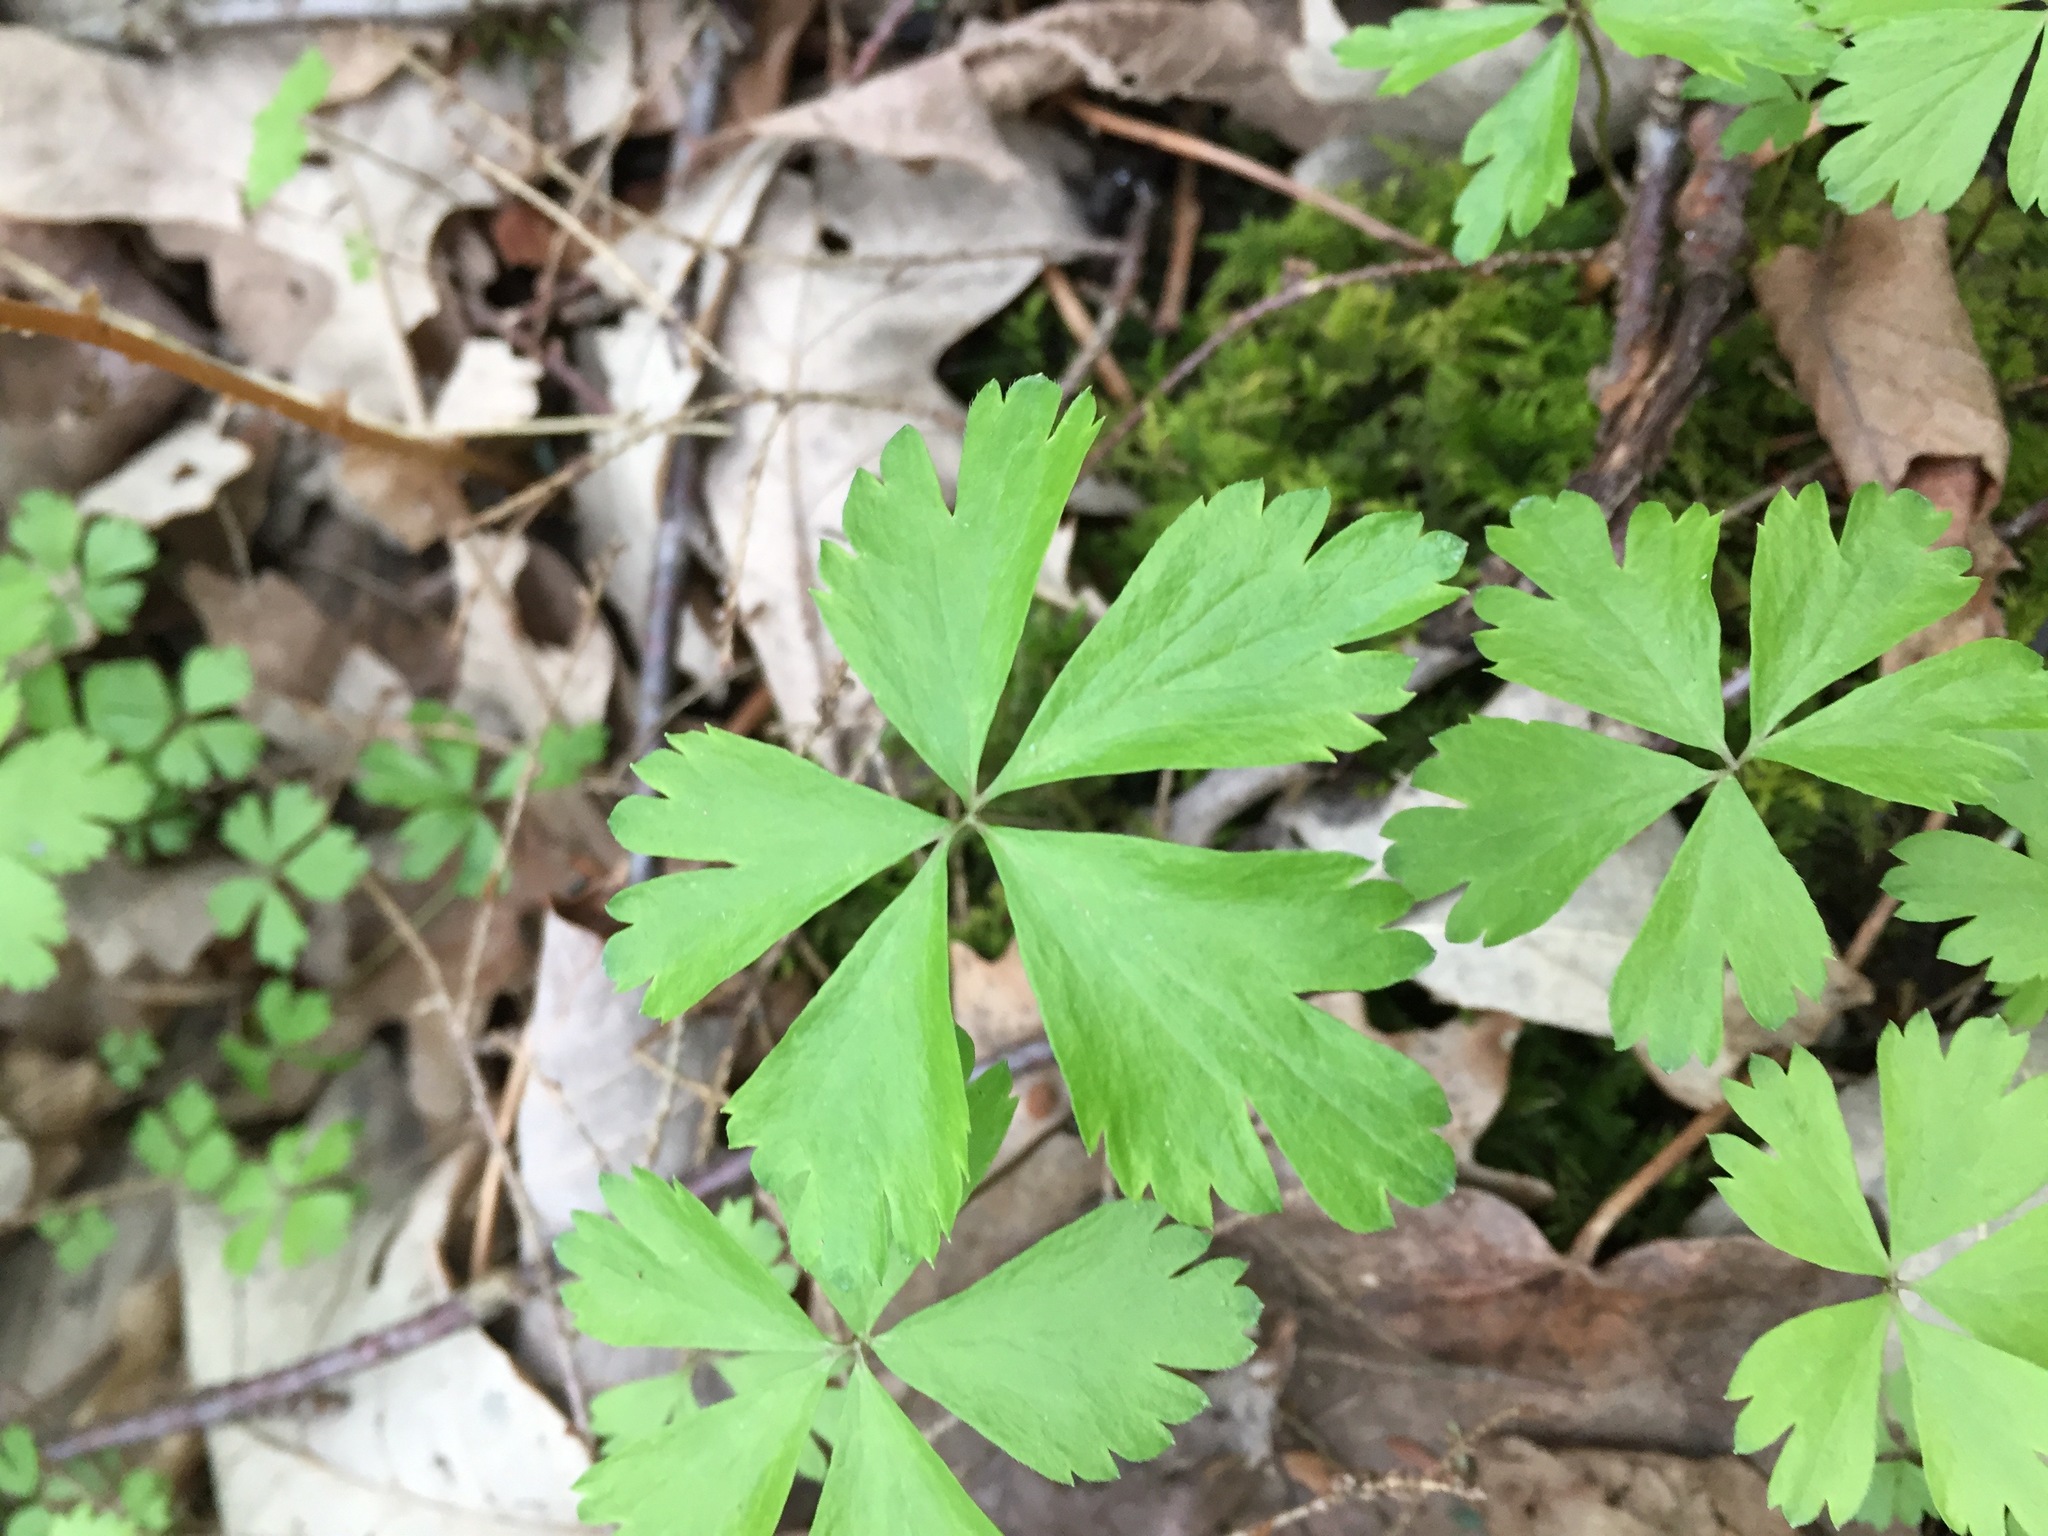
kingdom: Plantae
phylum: Tracheophyta
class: Magnoliopsida
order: Ranunculales
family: Ranunculaceae
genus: Anemone
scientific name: Anemone quinquefolia
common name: Wood anemone
